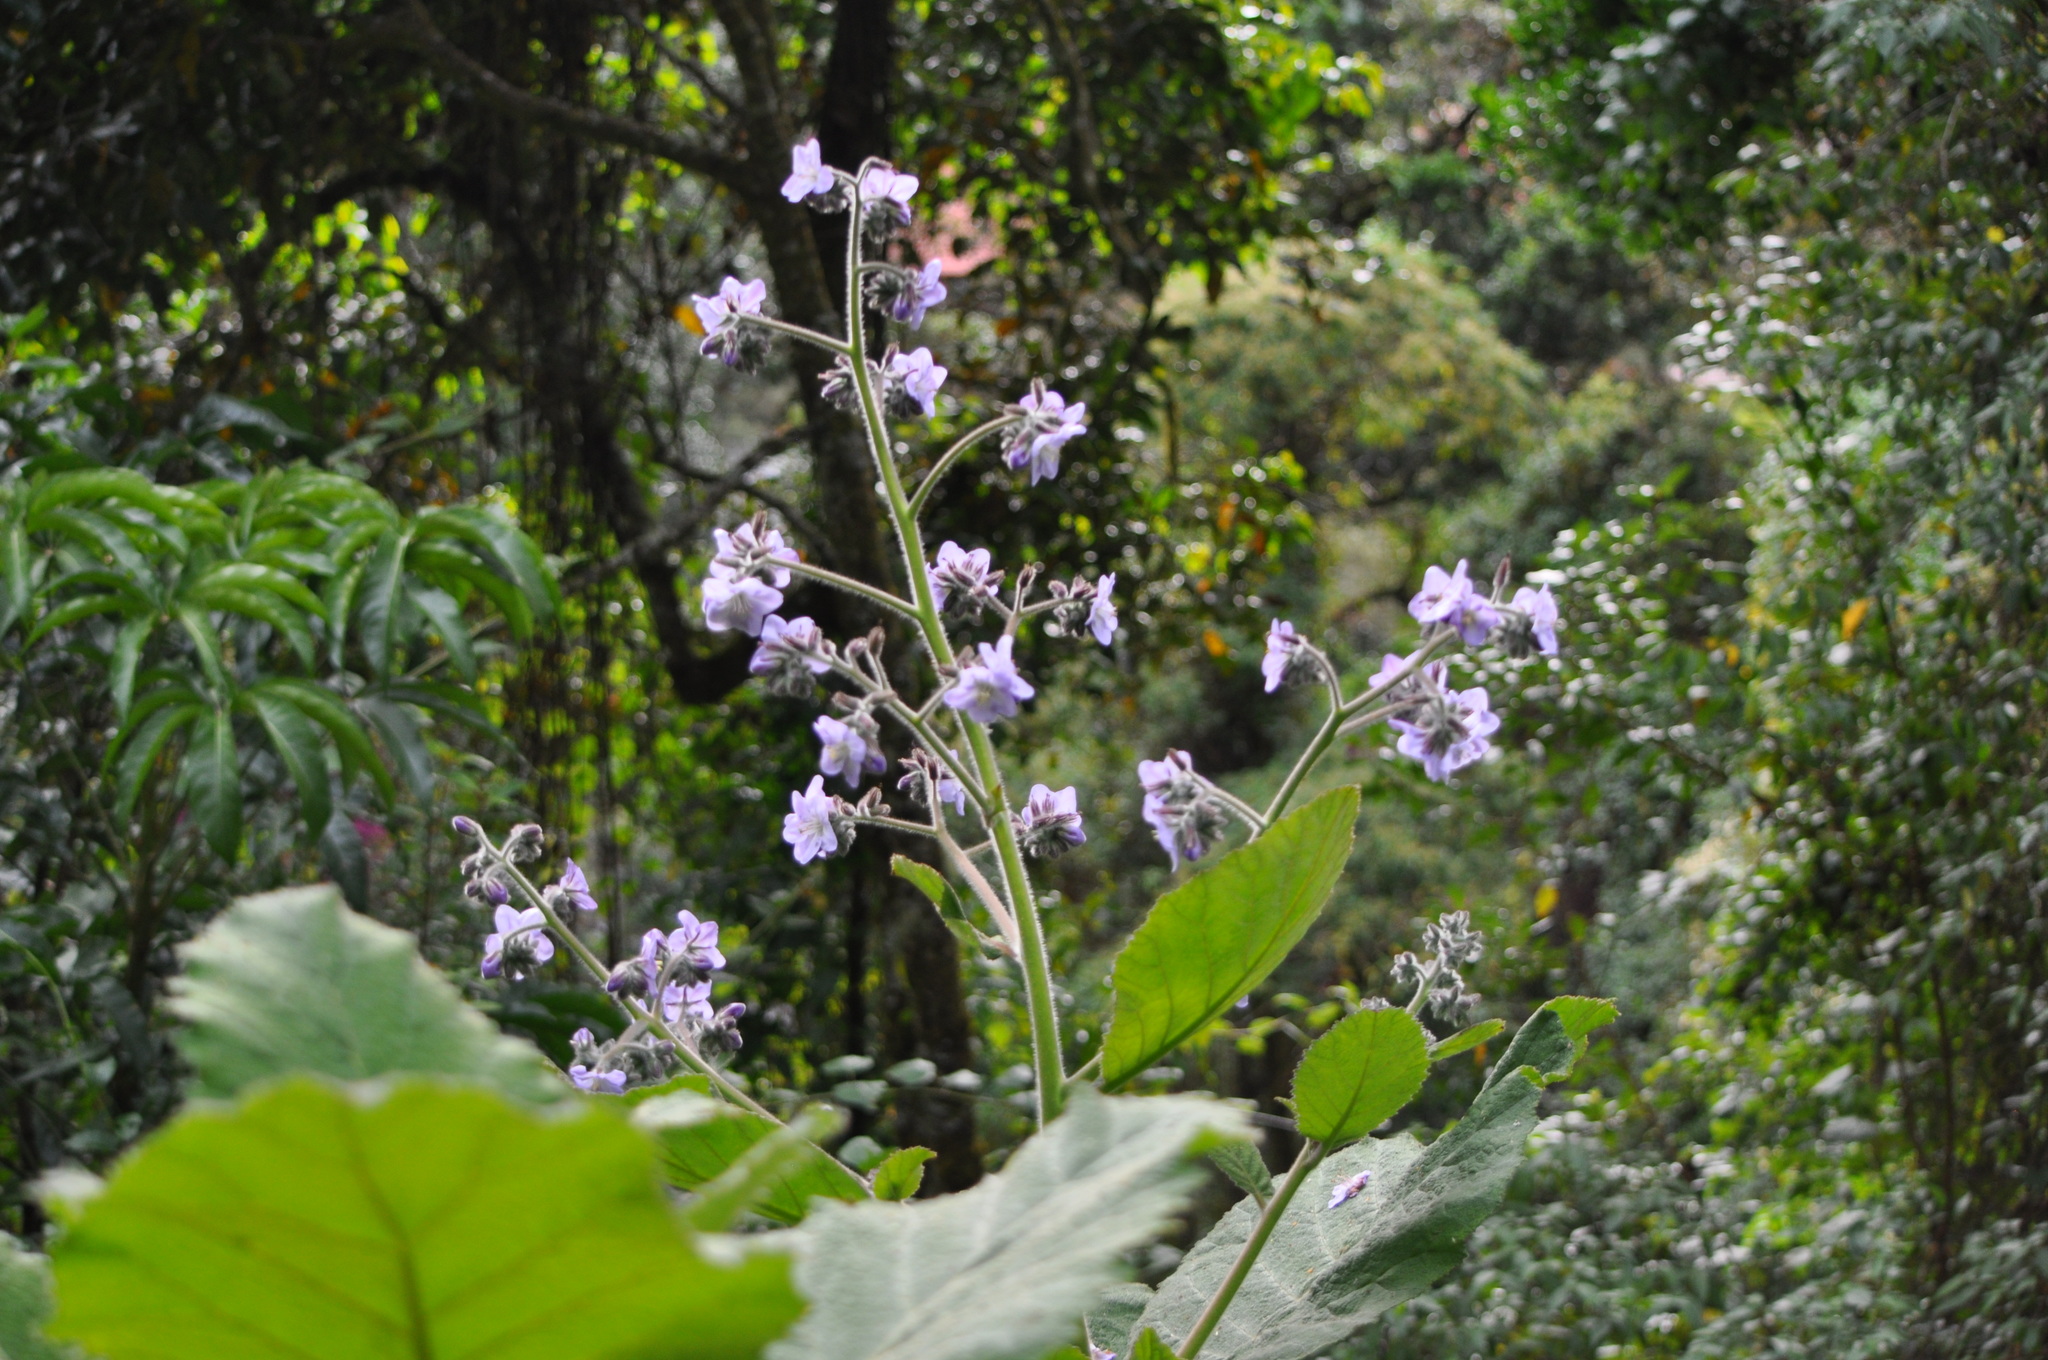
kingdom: Plantae
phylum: Tracheophyta
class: Magnoliopsida
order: Boraginales
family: Namaceae
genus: Wigandia
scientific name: Wigandia urens
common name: Caracus wigandia
